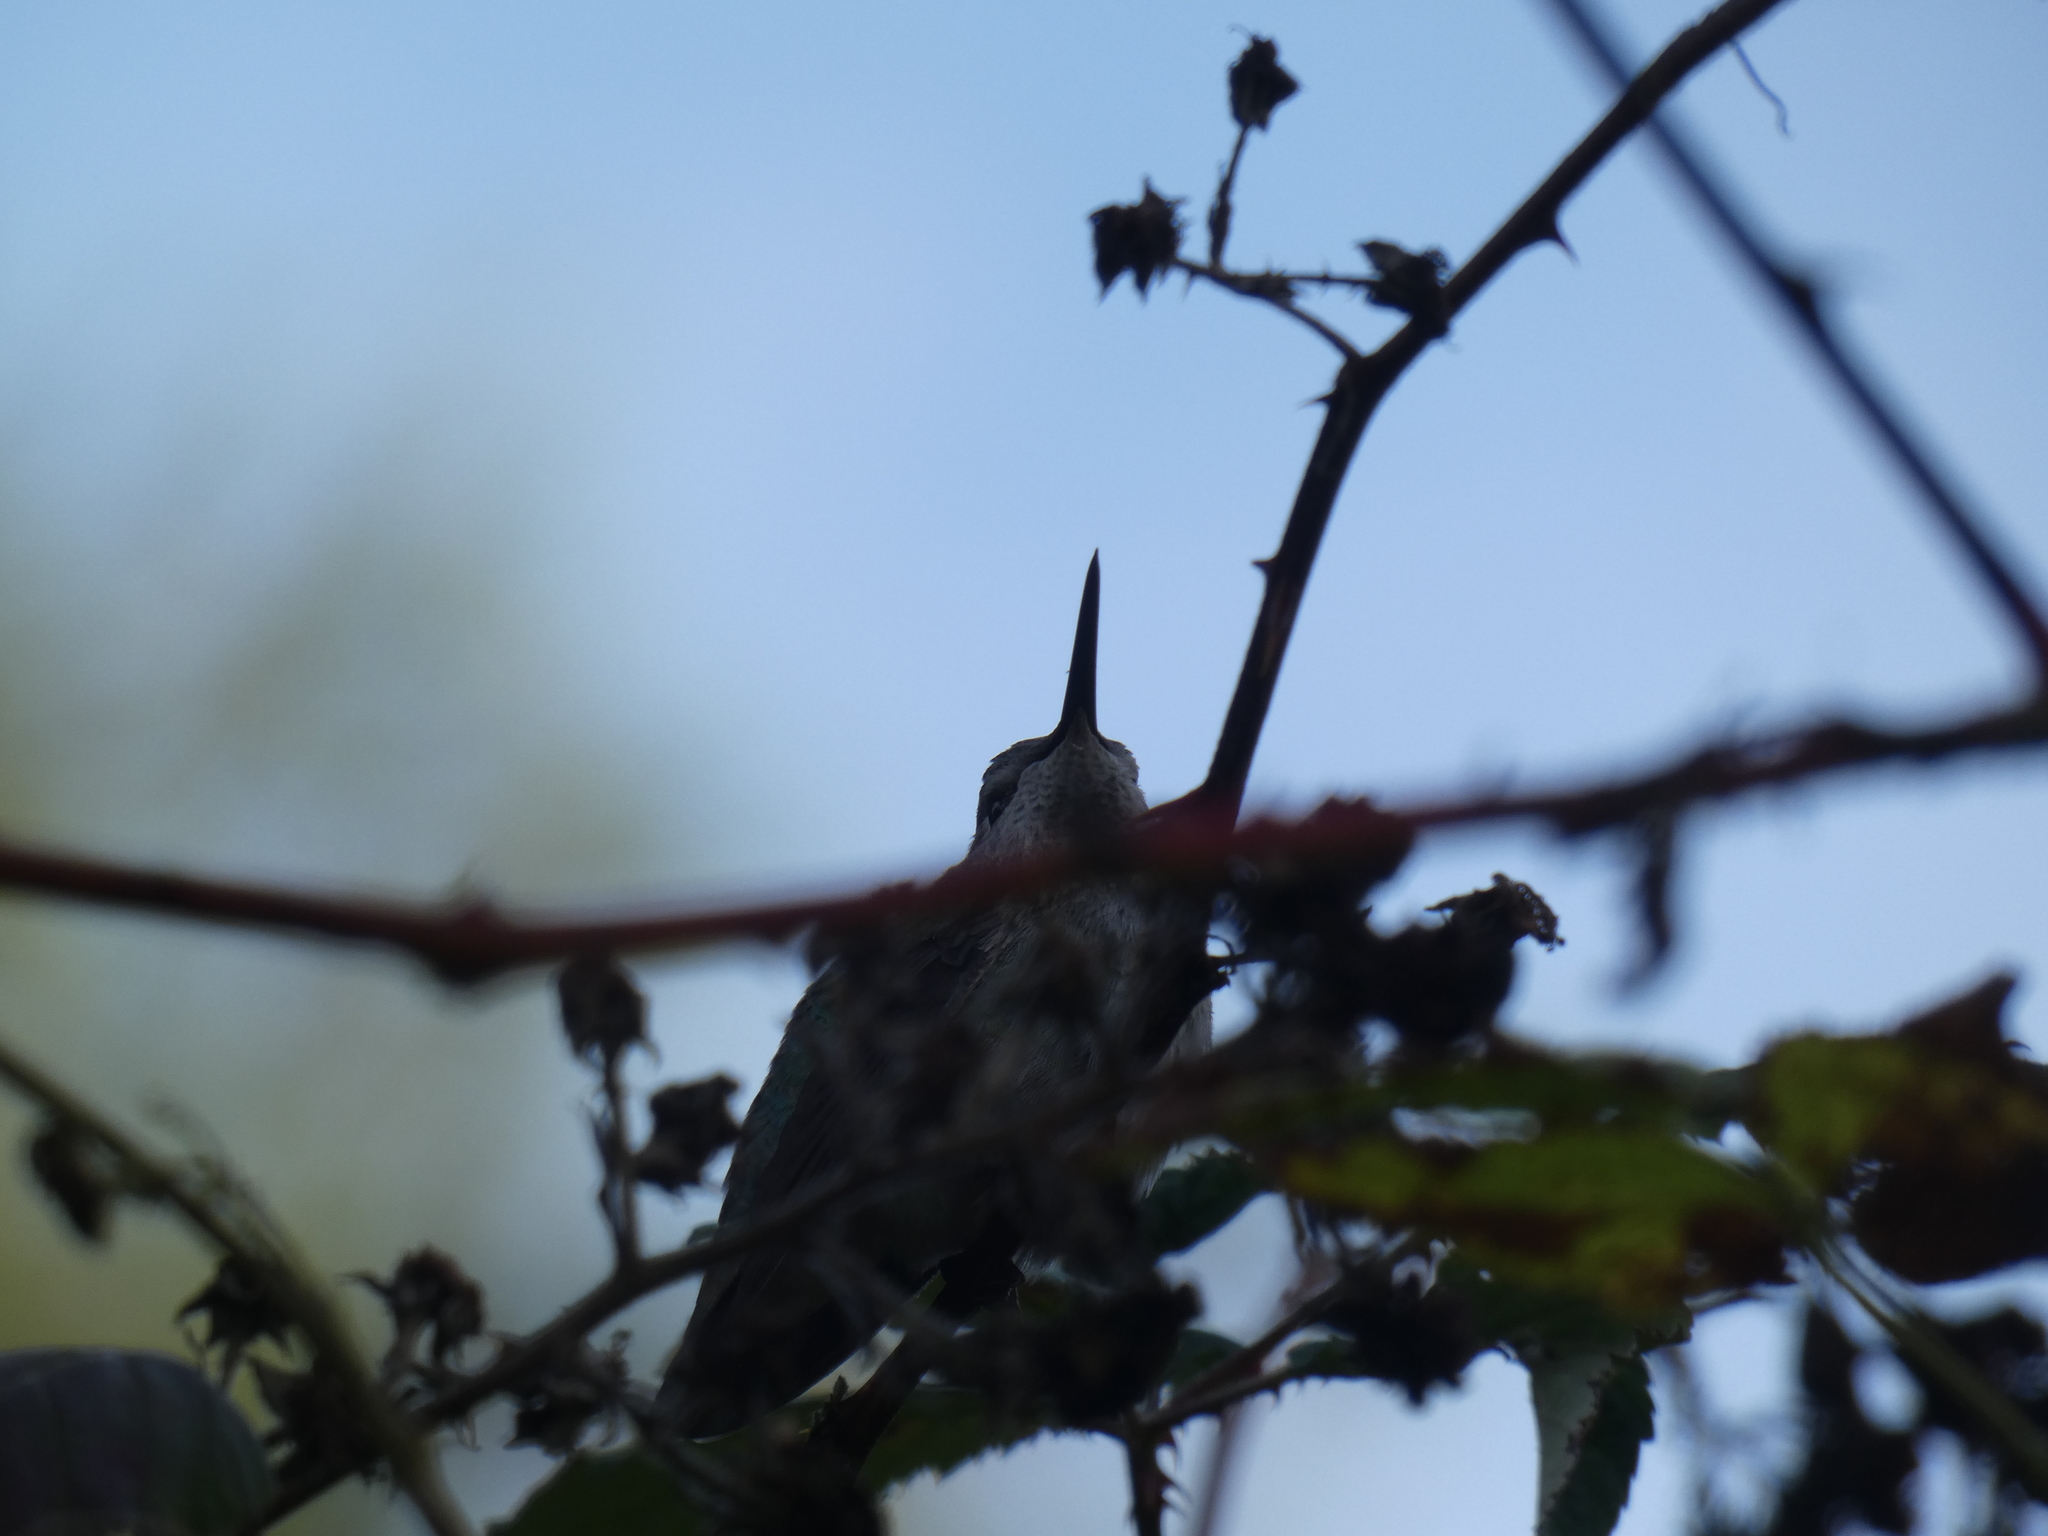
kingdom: Animalia
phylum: Chordata
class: Aves
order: Apodiformes
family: Trochilidae
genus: Calypte
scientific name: Calypte anna
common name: Anna's hummingbird
